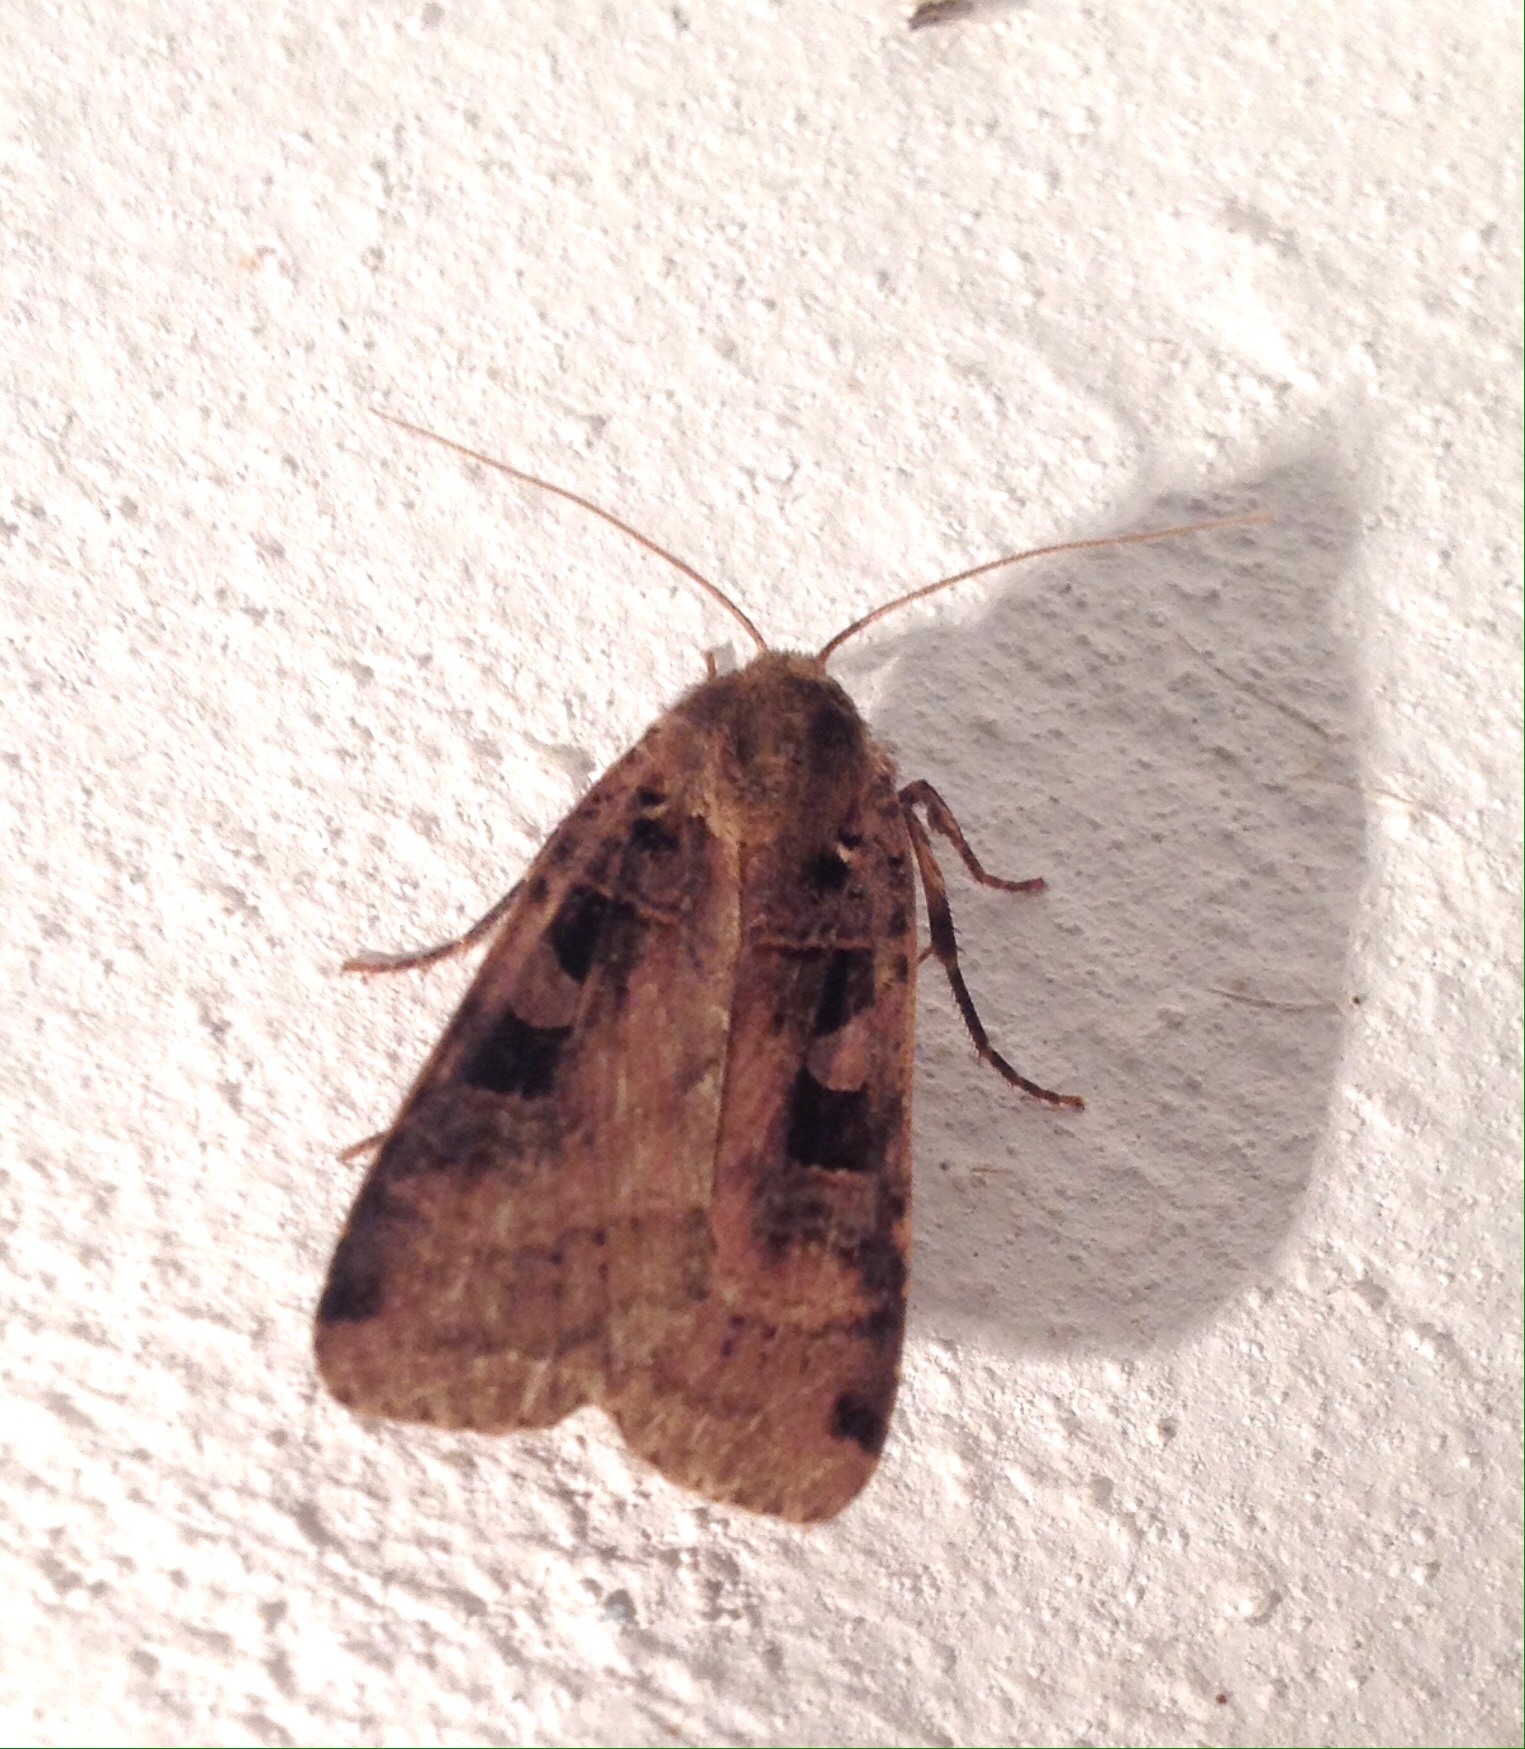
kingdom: Animalia
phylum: Arthropoda
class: Insecta
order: Lepidoptera
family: Noctuidae
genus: Xestia
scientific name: Xestia ditrapezium
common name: Triple-spotted clay
